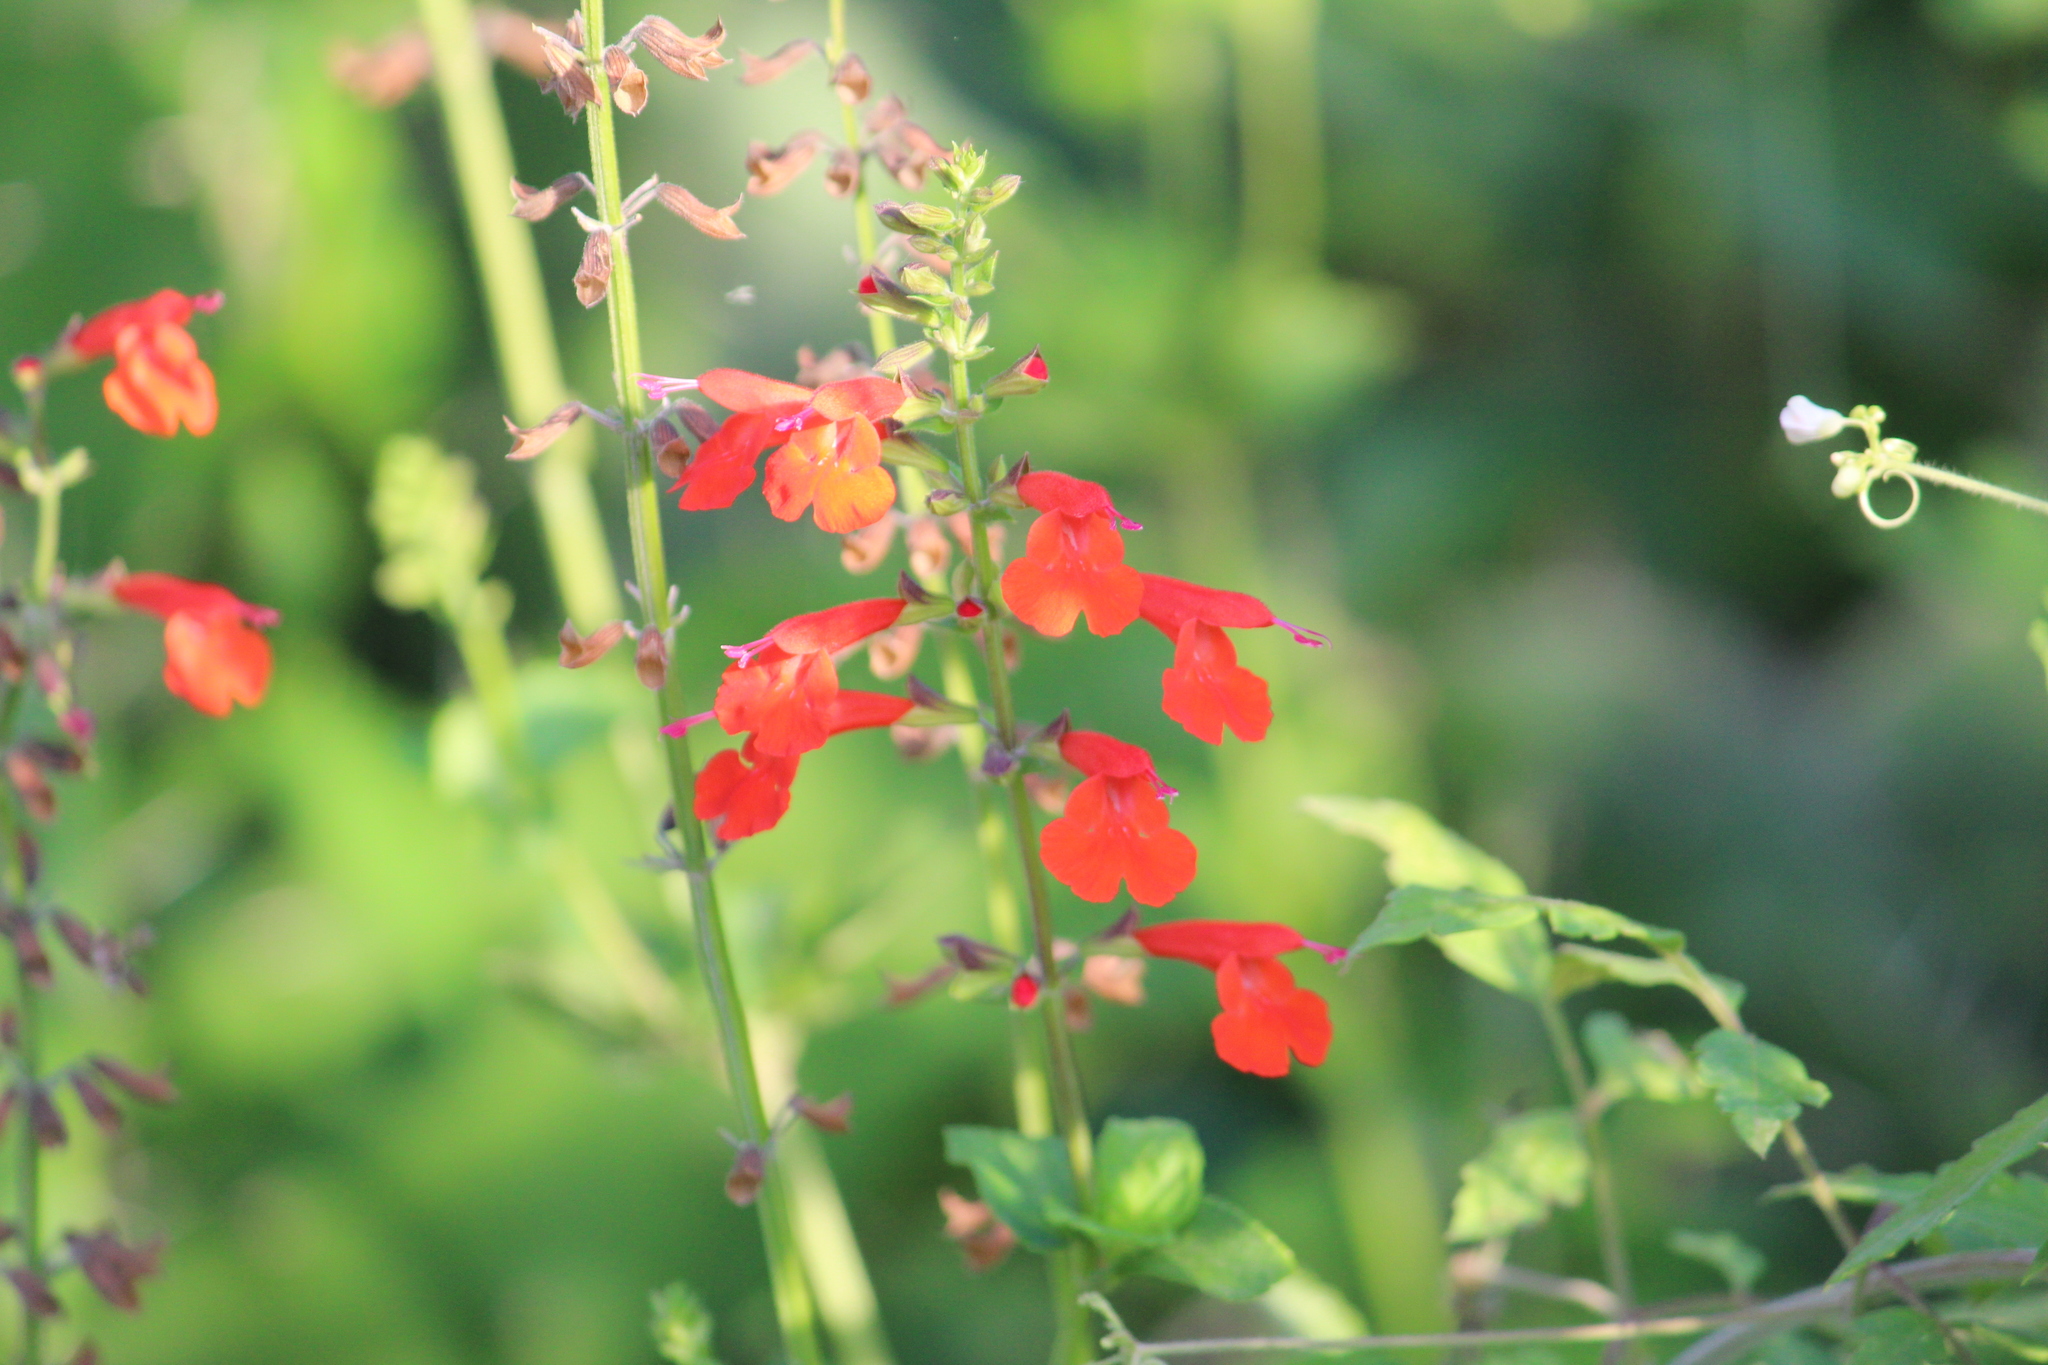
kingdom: Plantae
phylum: Tracheophyta
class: Magnoliopsida
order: Lamiales
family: Lamiaceae
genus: Salvia
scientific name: Salvia coccinea
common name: Blood sage
